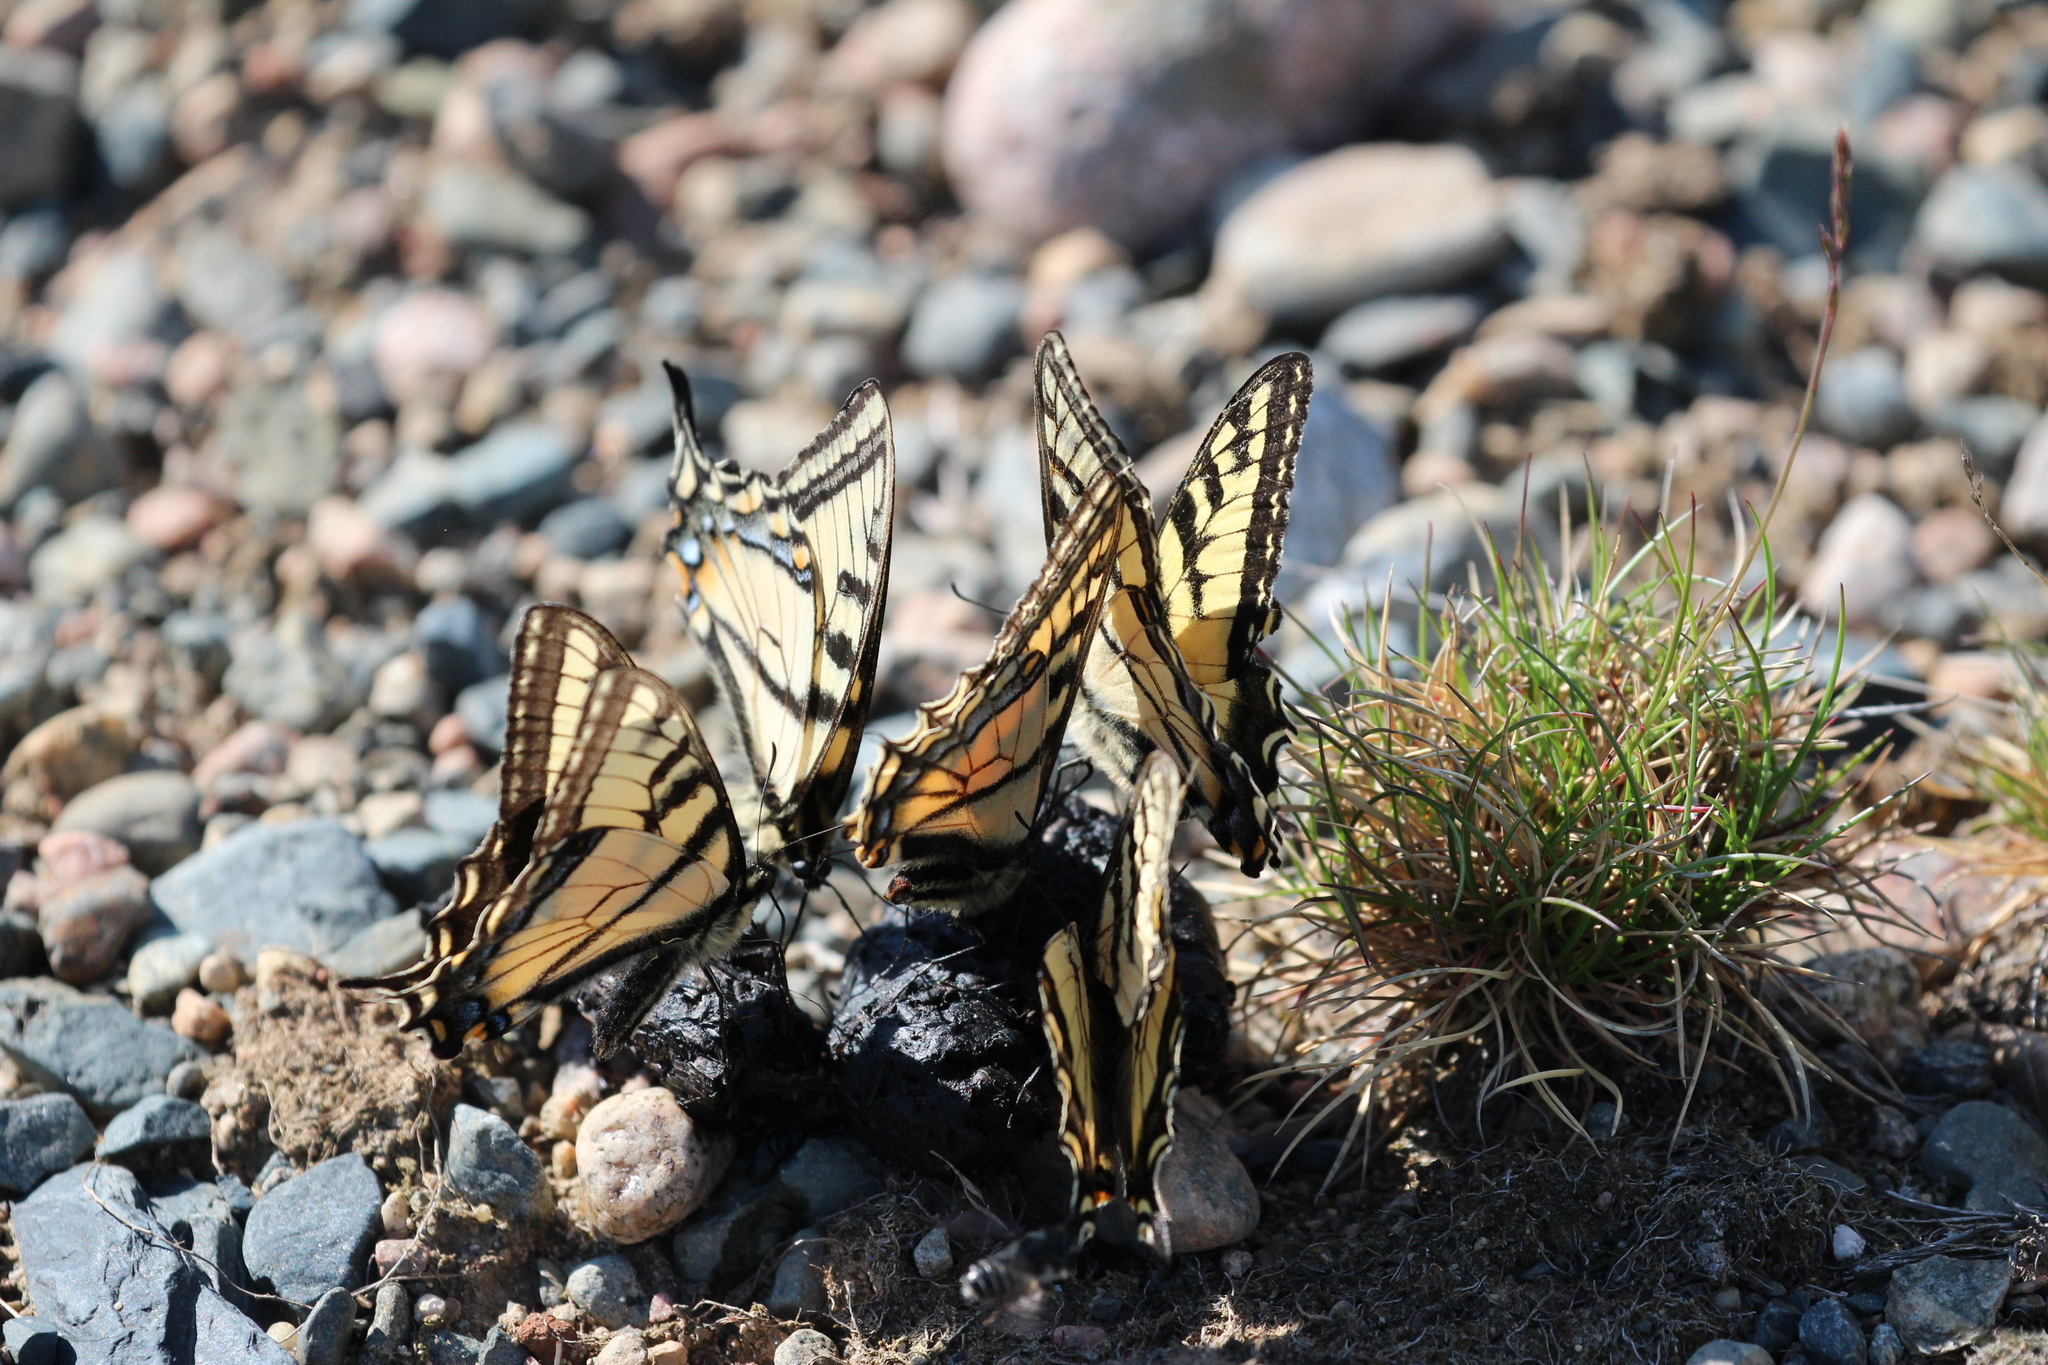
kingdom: Animalia
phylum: Arthropoda
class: Insecta
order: Lepidoptera
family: Papilionidae
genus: Papilio
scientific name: Papilio canadensis
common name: Canadian tiger swallowtail
